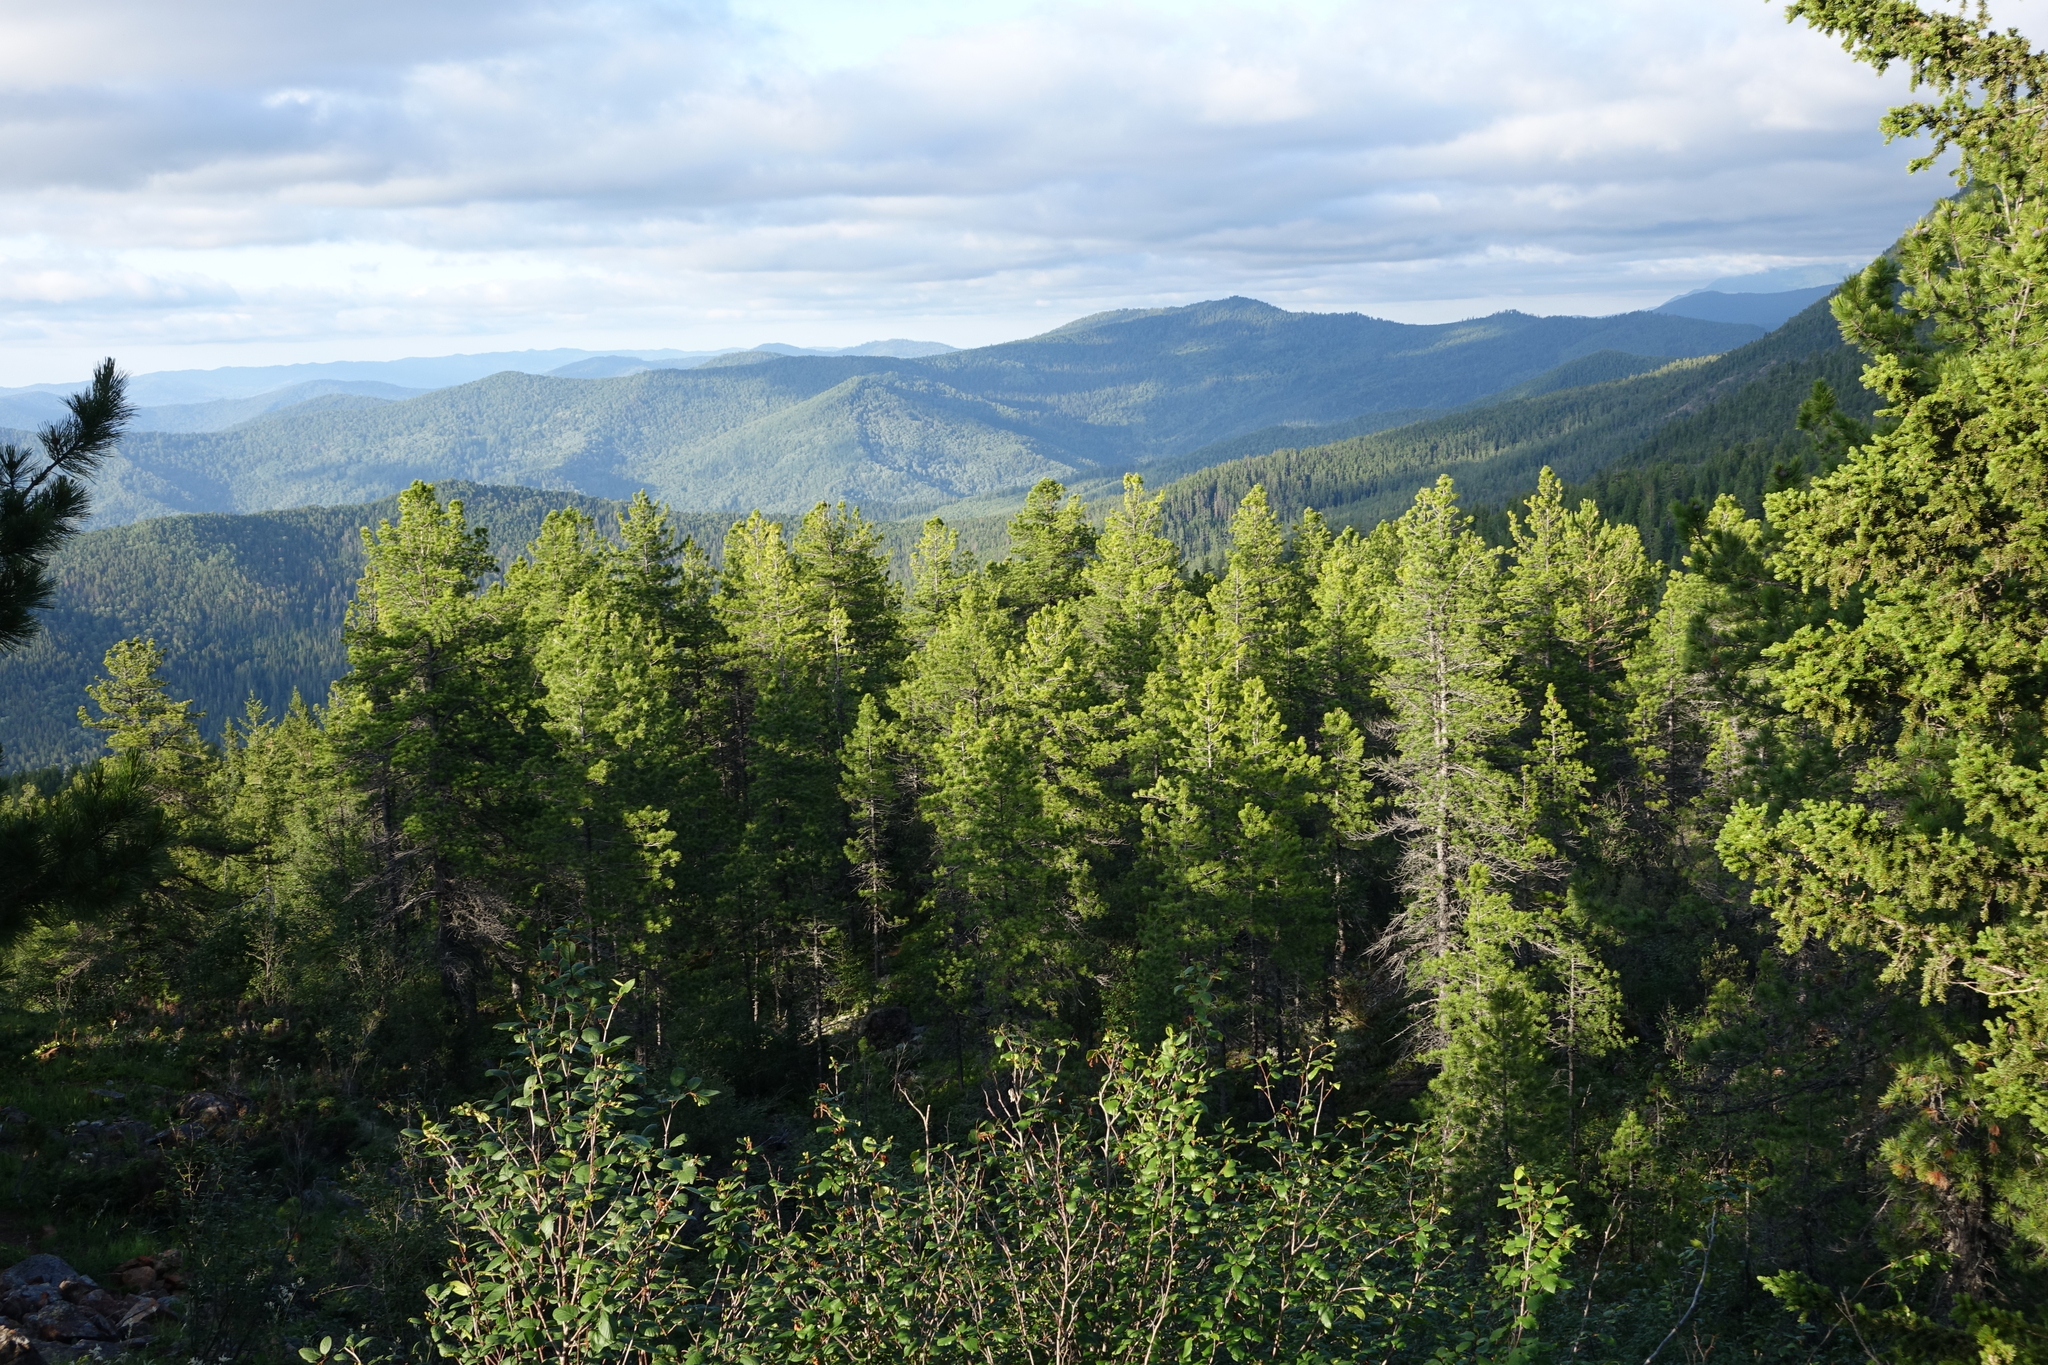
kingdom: Plantae
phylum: Tracheophyta
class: Pinopsida
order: Pinales
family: Pinaceae
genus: Pinus
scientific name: Pinus sibirica
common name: Siberian pine
